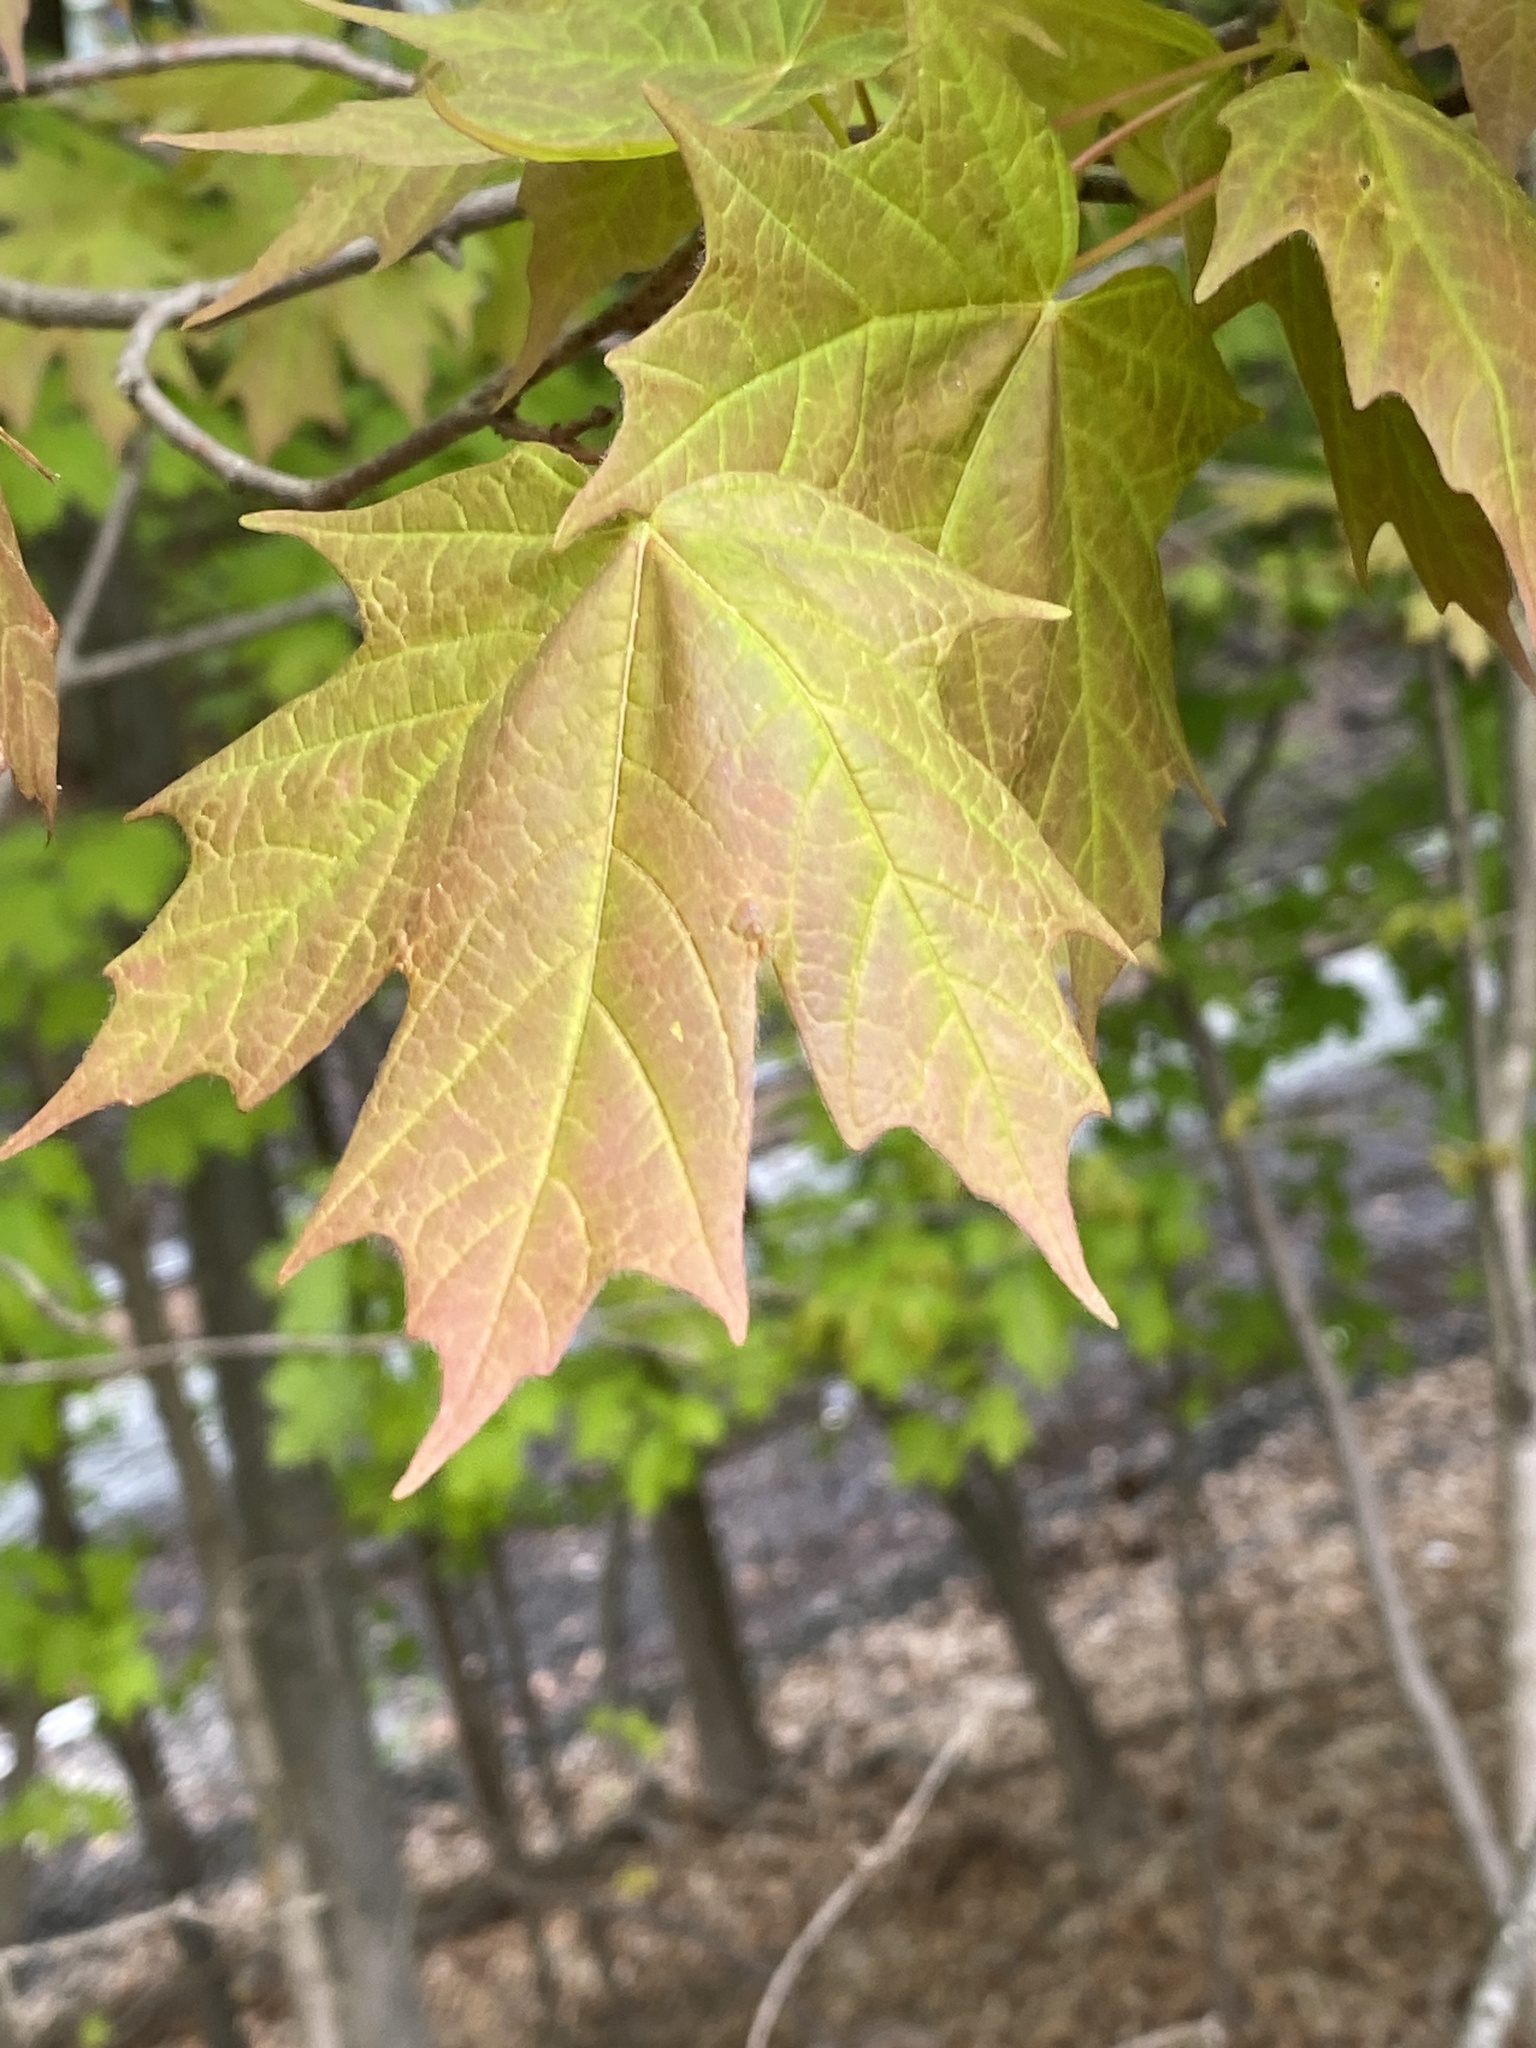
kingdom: Plantae
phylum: Tracheophyta
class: Magnoliopsida
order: Sapindales
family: Sapindaceae
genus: Acer
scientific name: Acer saccharum
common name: Sugar maple
